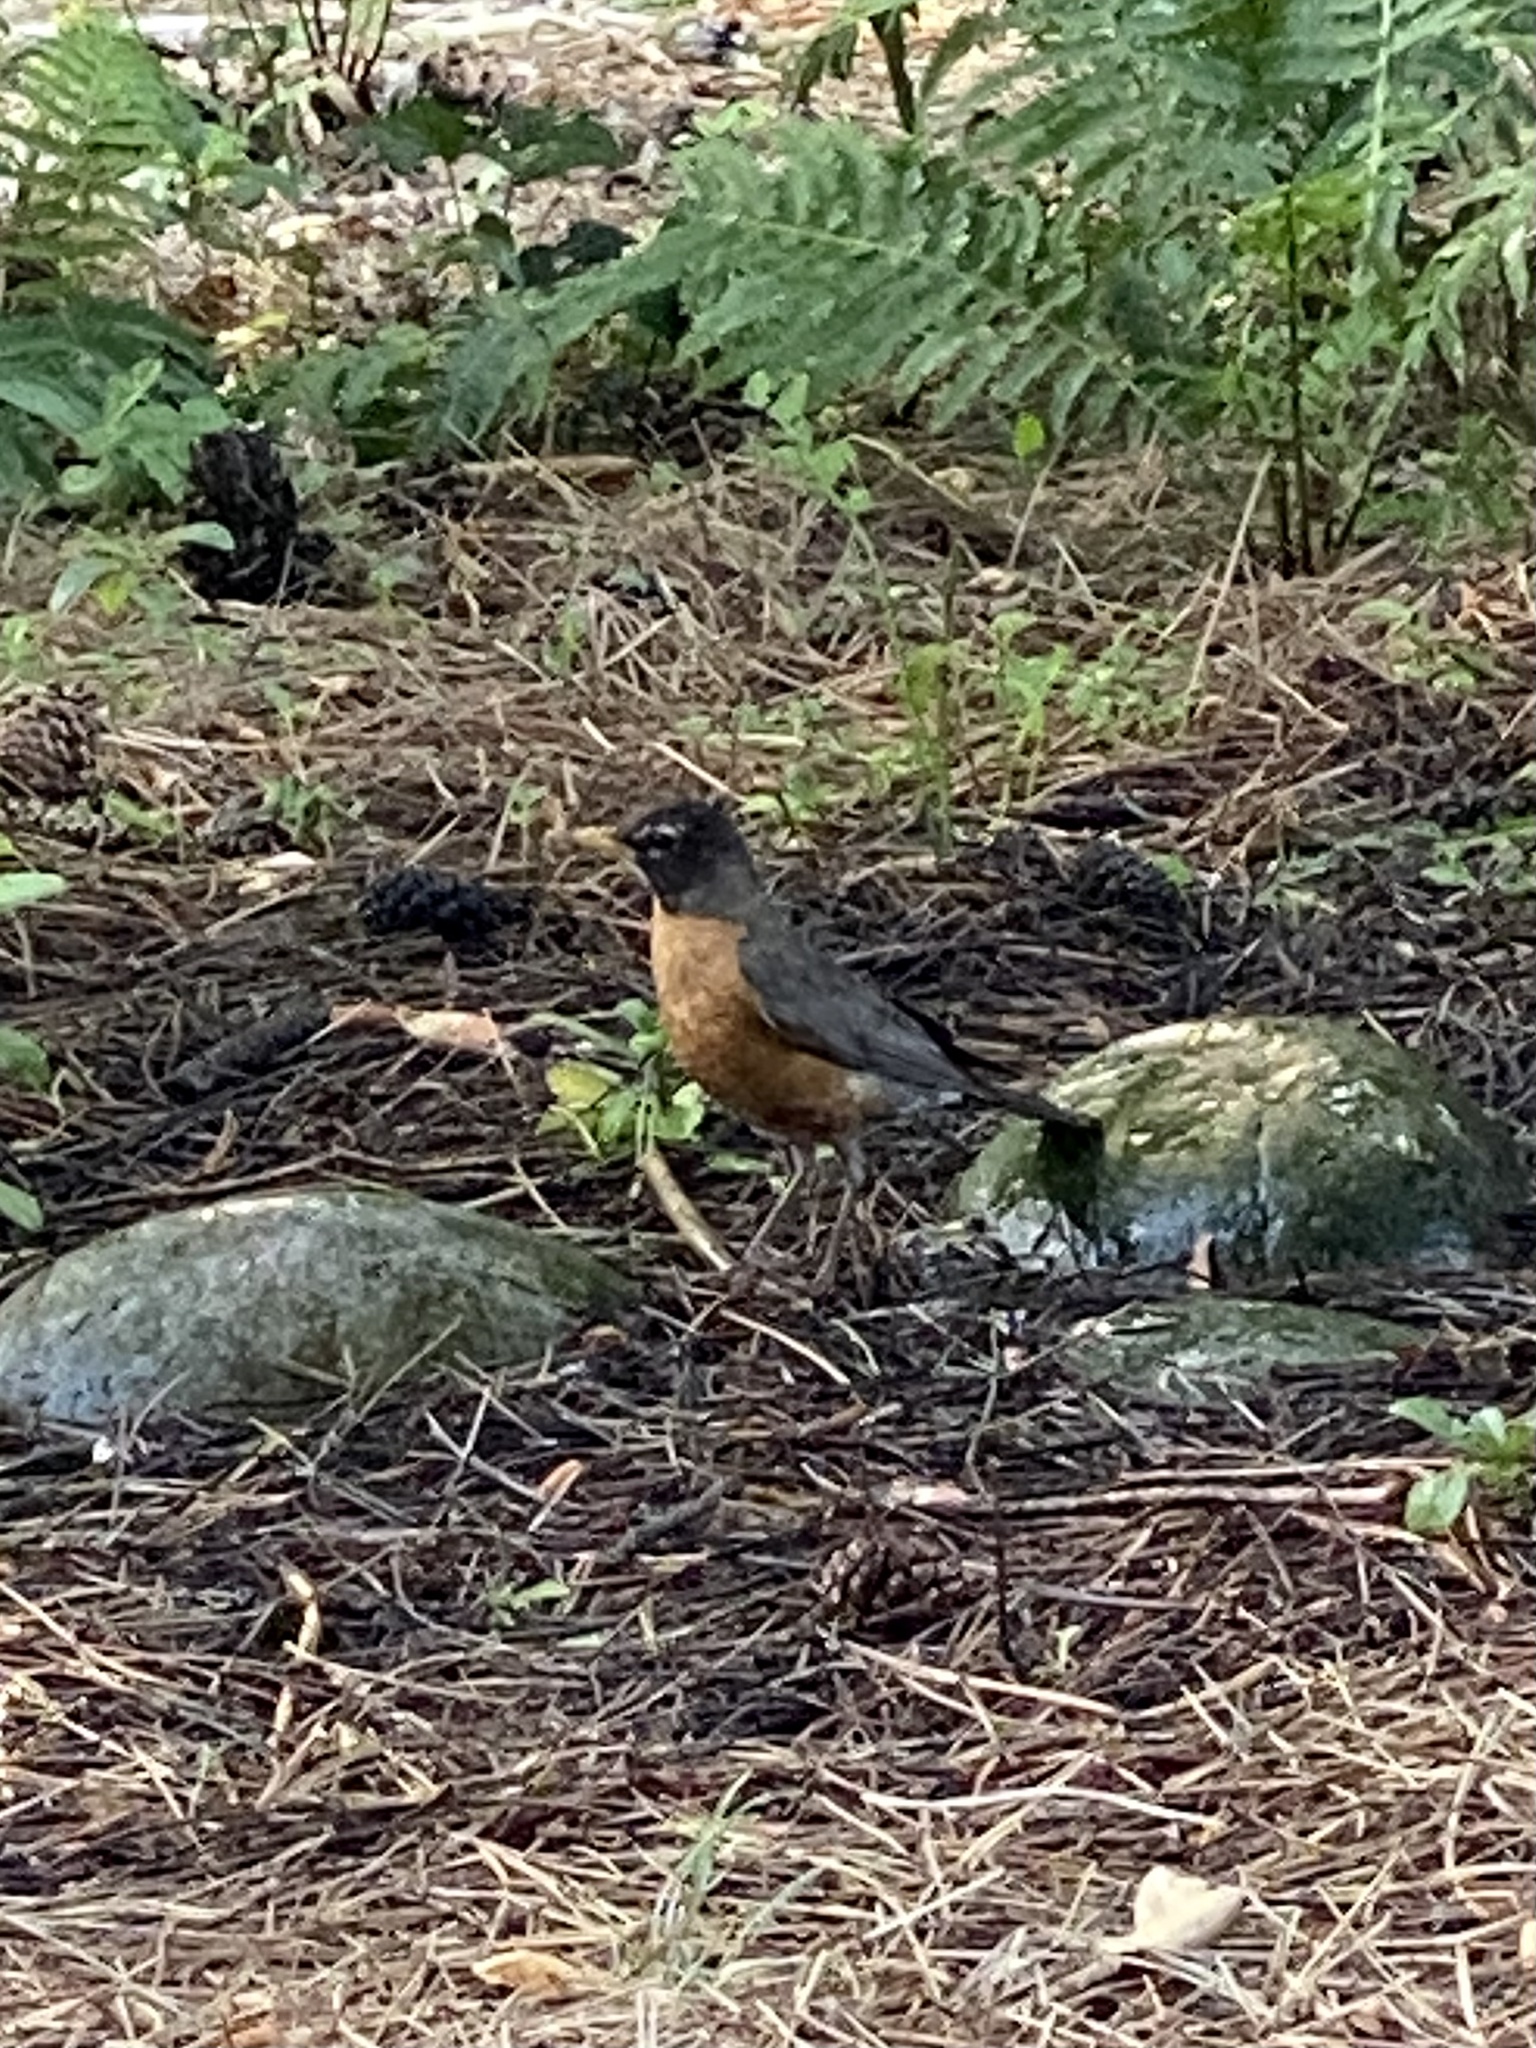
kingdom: Animalia
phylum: Chordata
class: Aves
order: Passeriformes
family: Turdidae
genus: Turdus
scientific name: Turdus migratorius
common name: American robin
